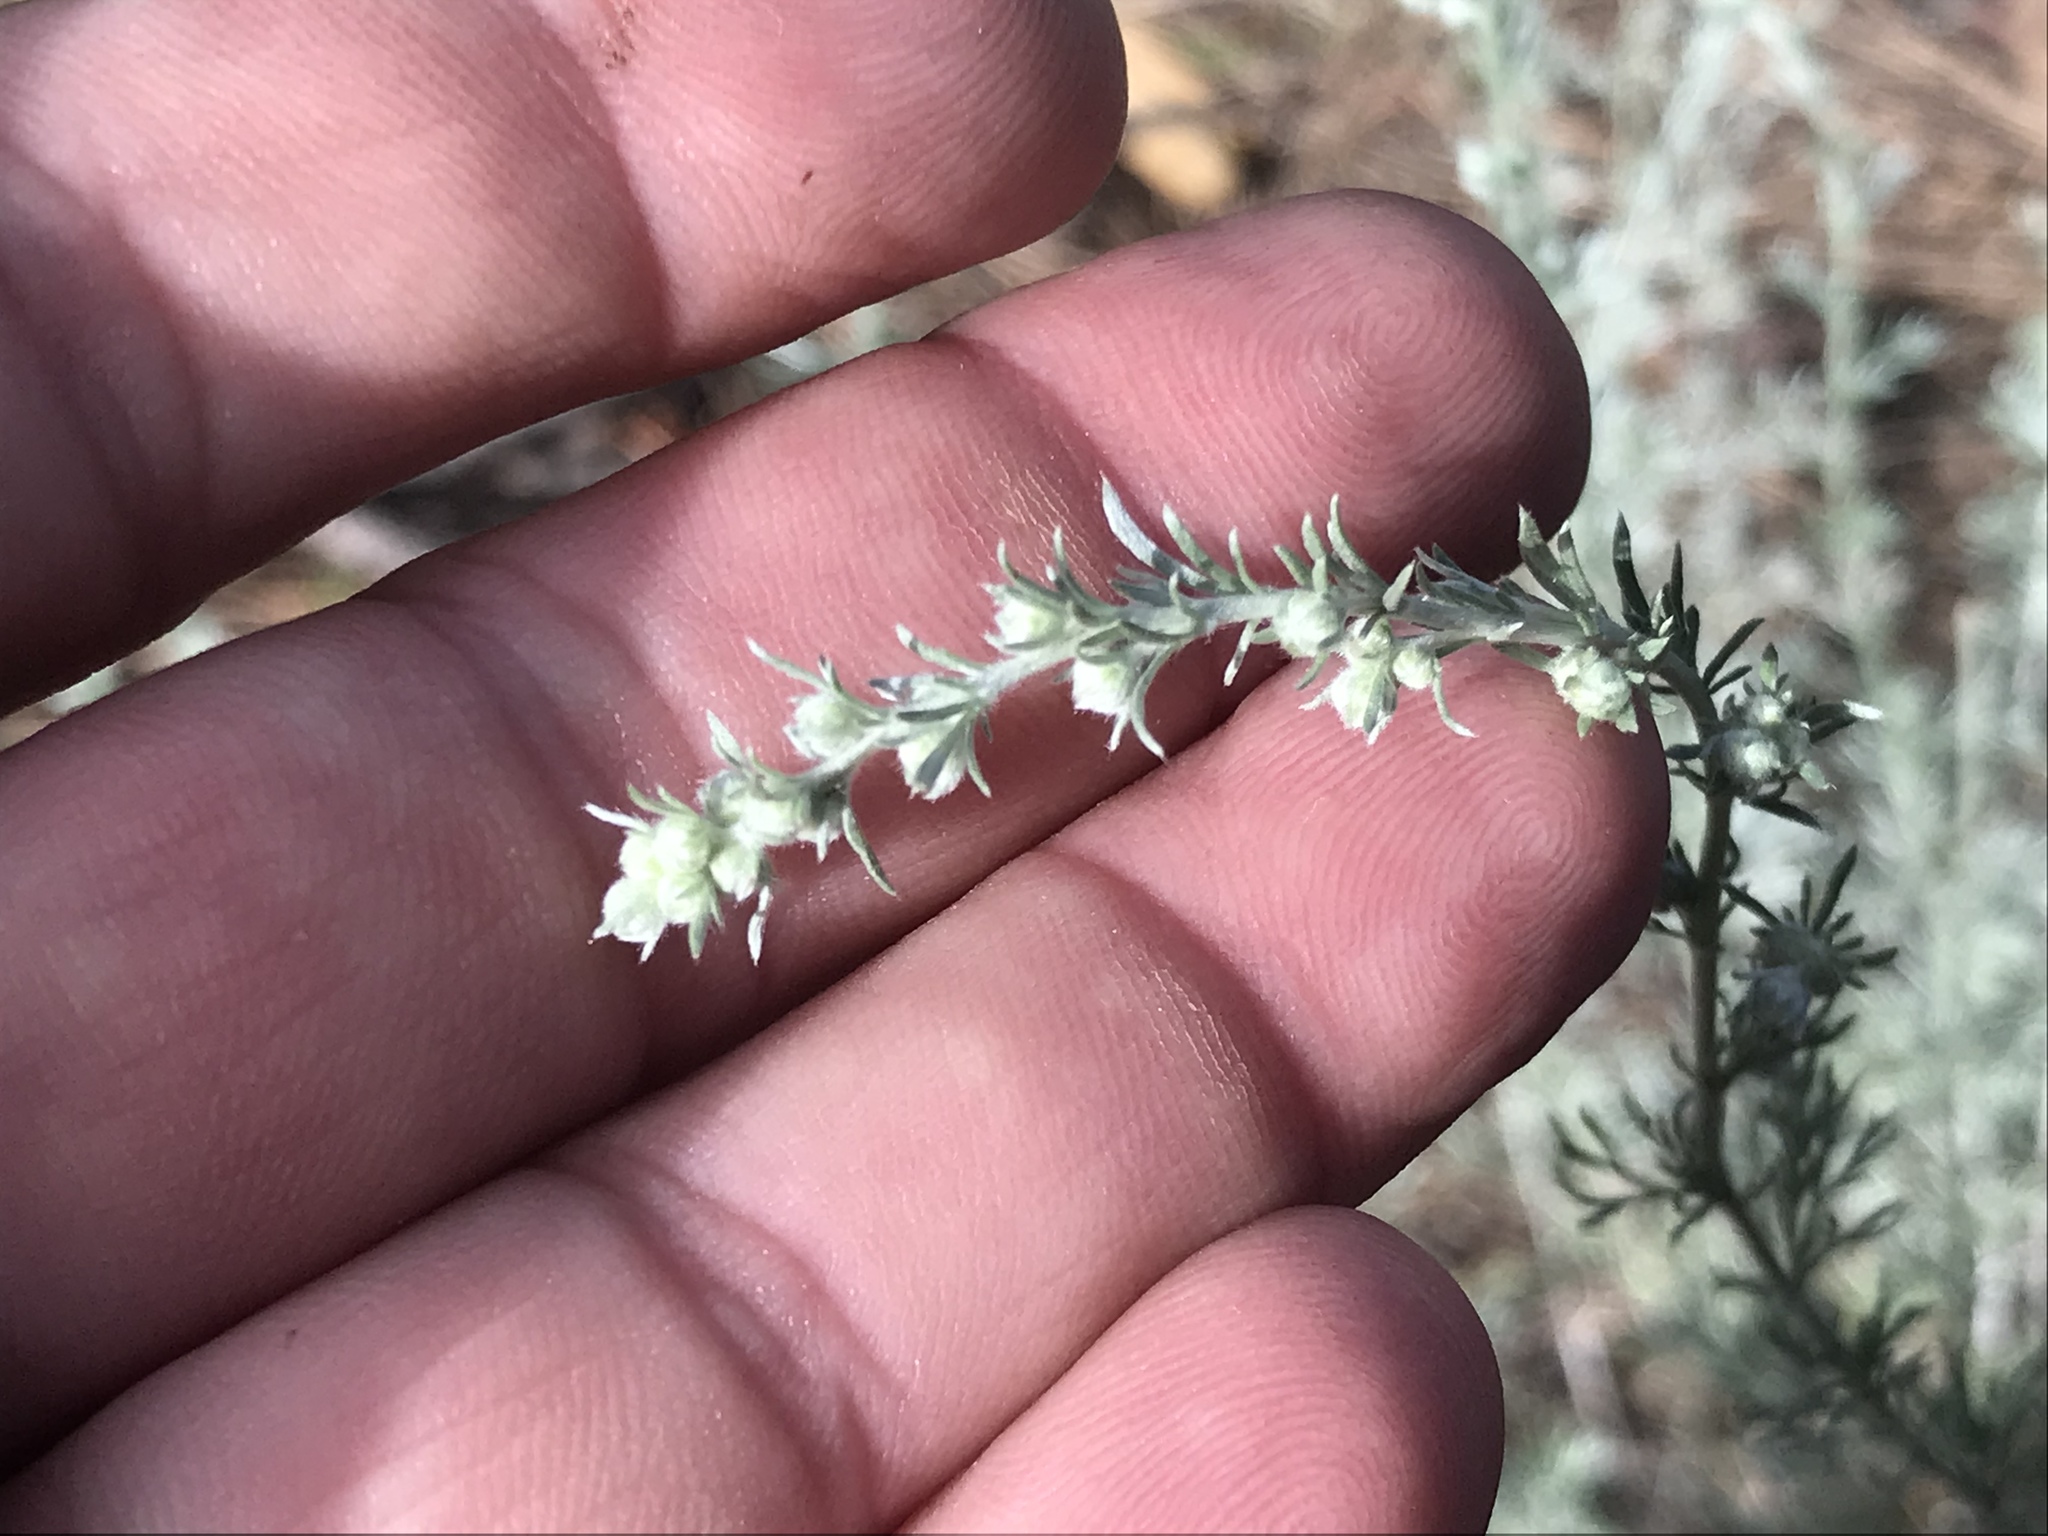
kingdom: Plantae
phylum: Tracheophyta
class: Magnoliopsida
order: Asterales
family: Asteraceae
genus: Artemisia
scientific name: Artemisia frigida
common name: Prairie sagewort
